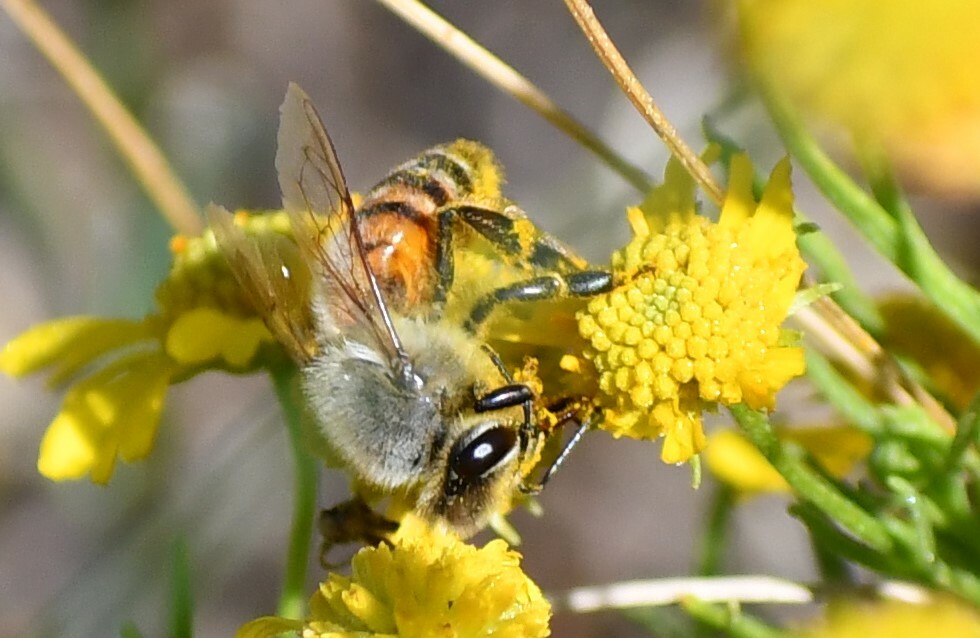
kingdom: Animalia
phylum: Arthropoda
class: Insecta
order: Hymenoptera
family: Apidae
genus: Apis
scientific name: Apis mellifera
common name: Honey bee
